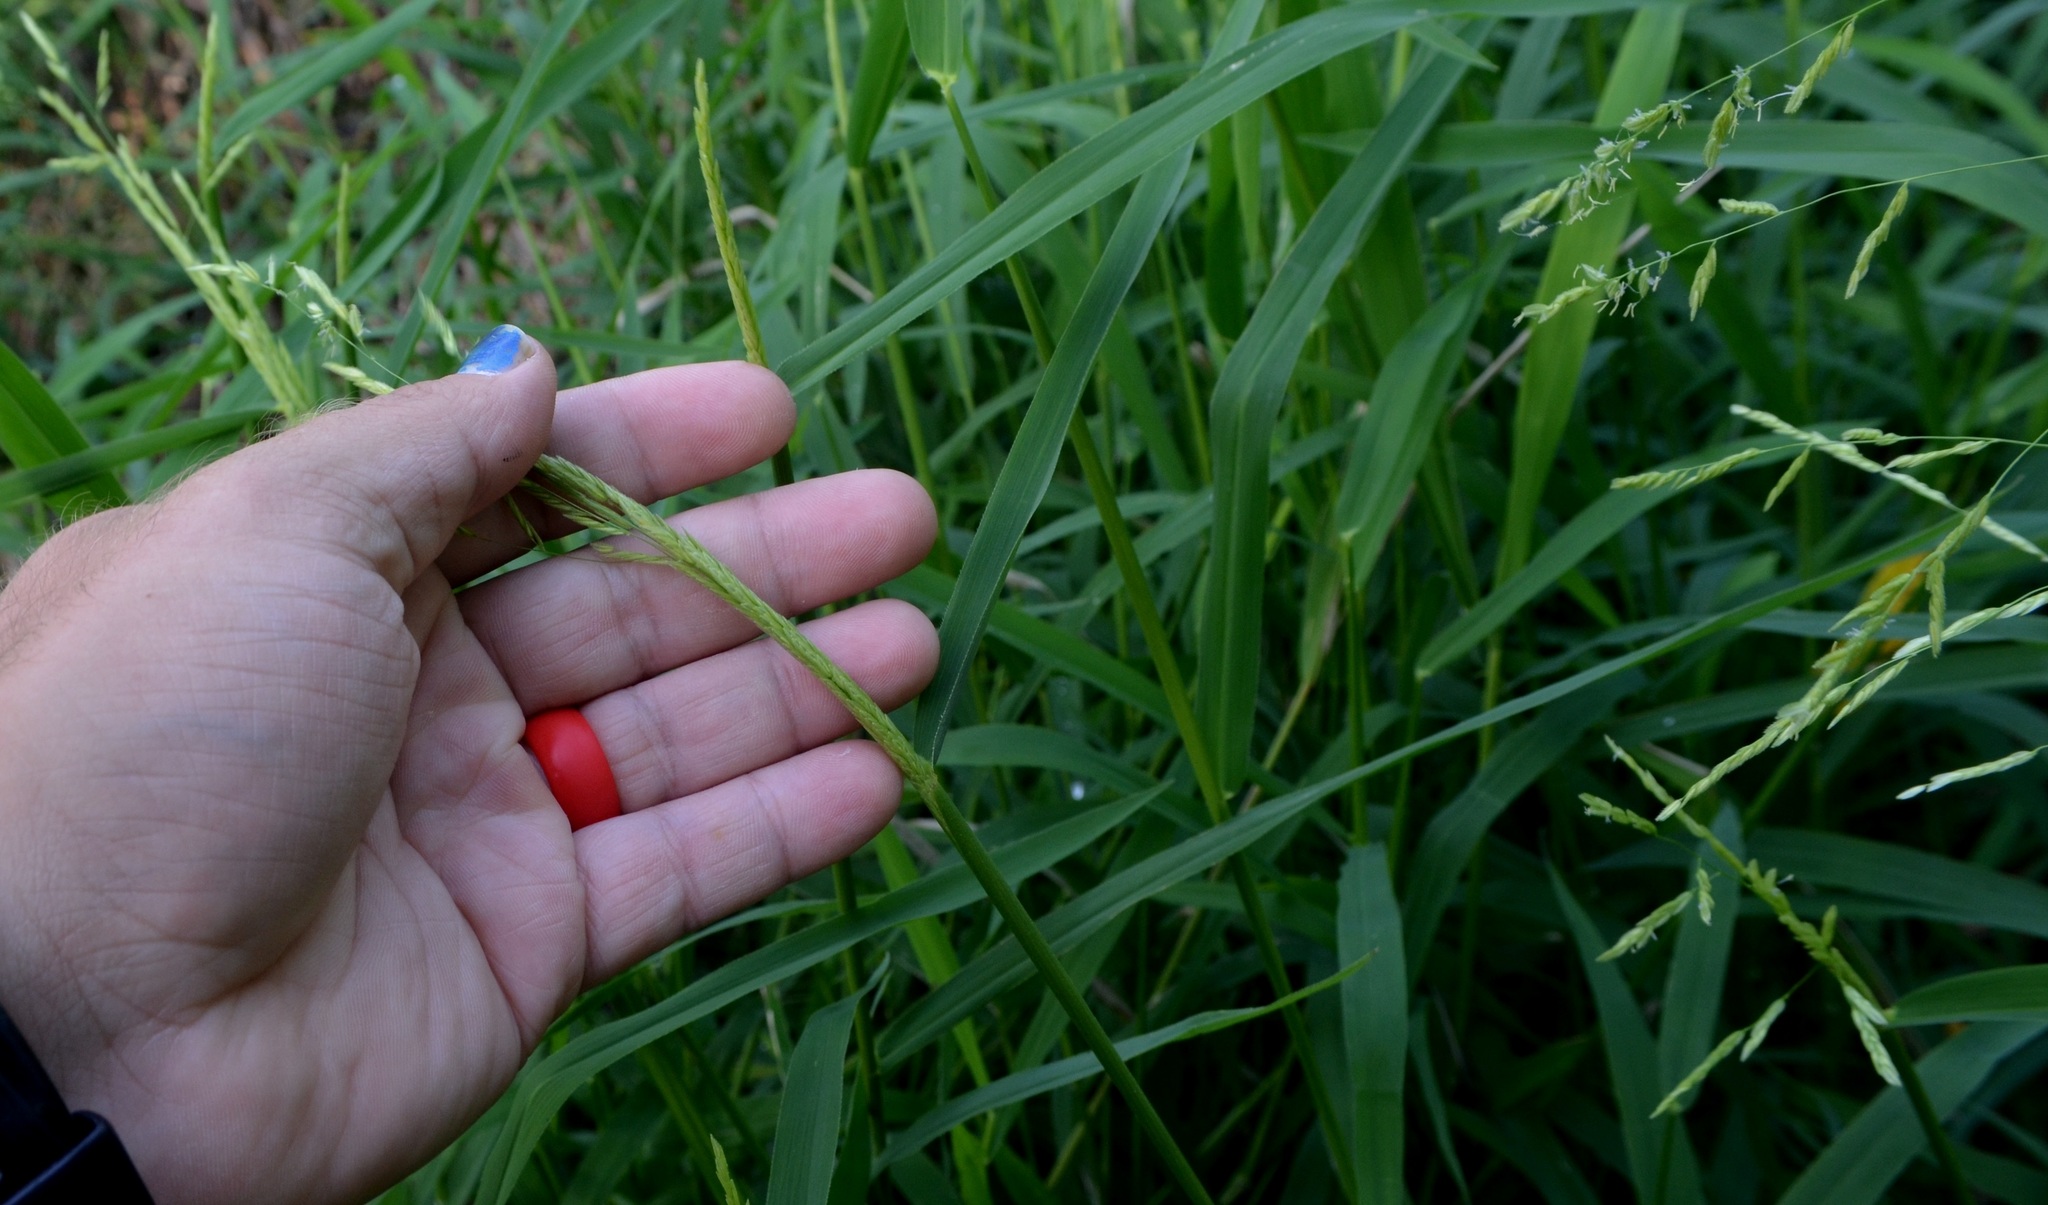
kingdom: Plantae
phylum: Tracheophyta
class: Liliopsida
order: Poales
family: Poaceae
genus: Leersia
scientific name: Leersia oryzoides
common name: Cut-grass
